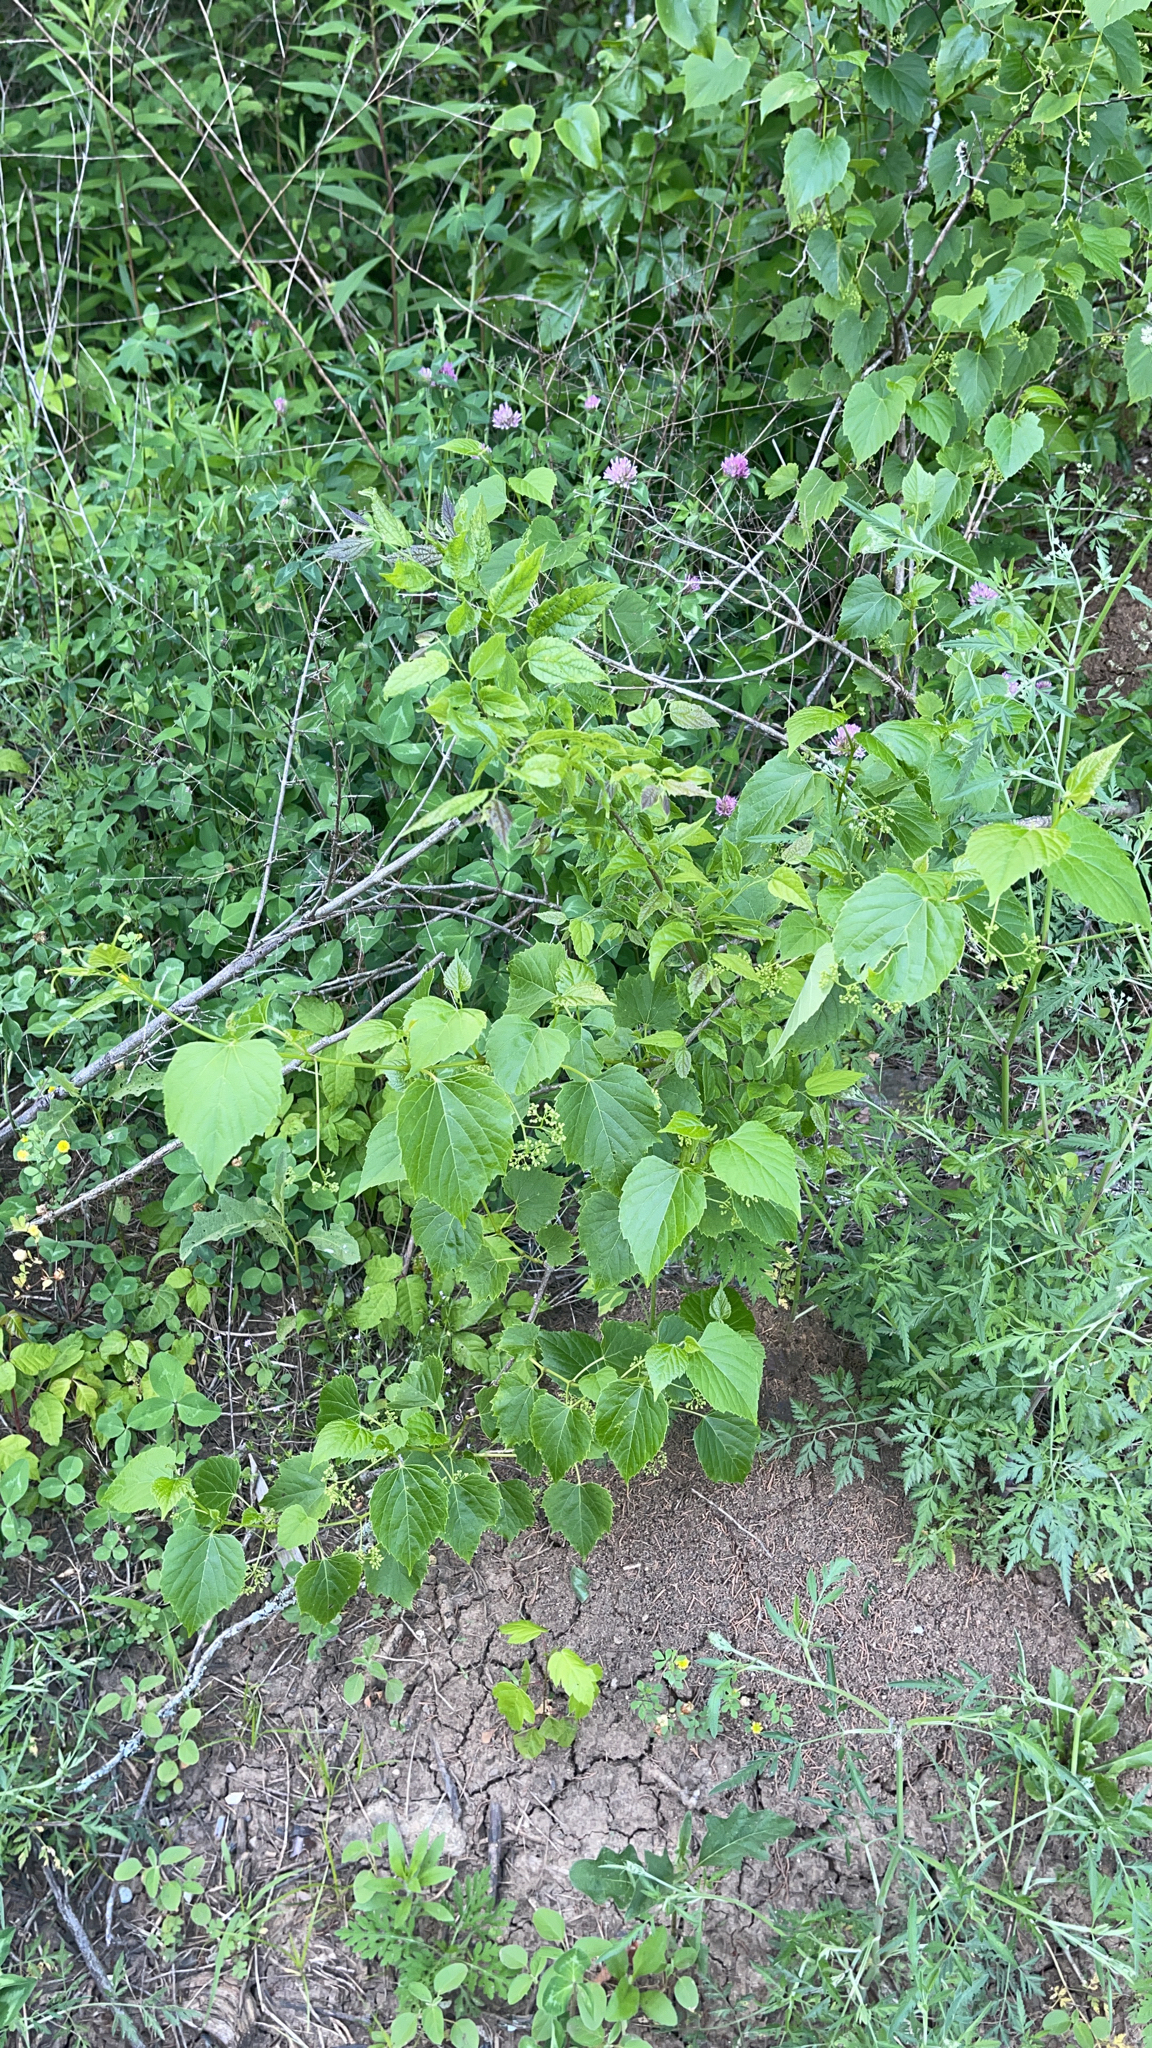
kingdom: Plantae
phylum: Tracheophyta
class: Magnoliopsida
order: Vitales
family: Vitaceae
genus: Ampelopsis
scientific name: Ampelopsis cordata
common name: Heart-leaf ampelopsis
